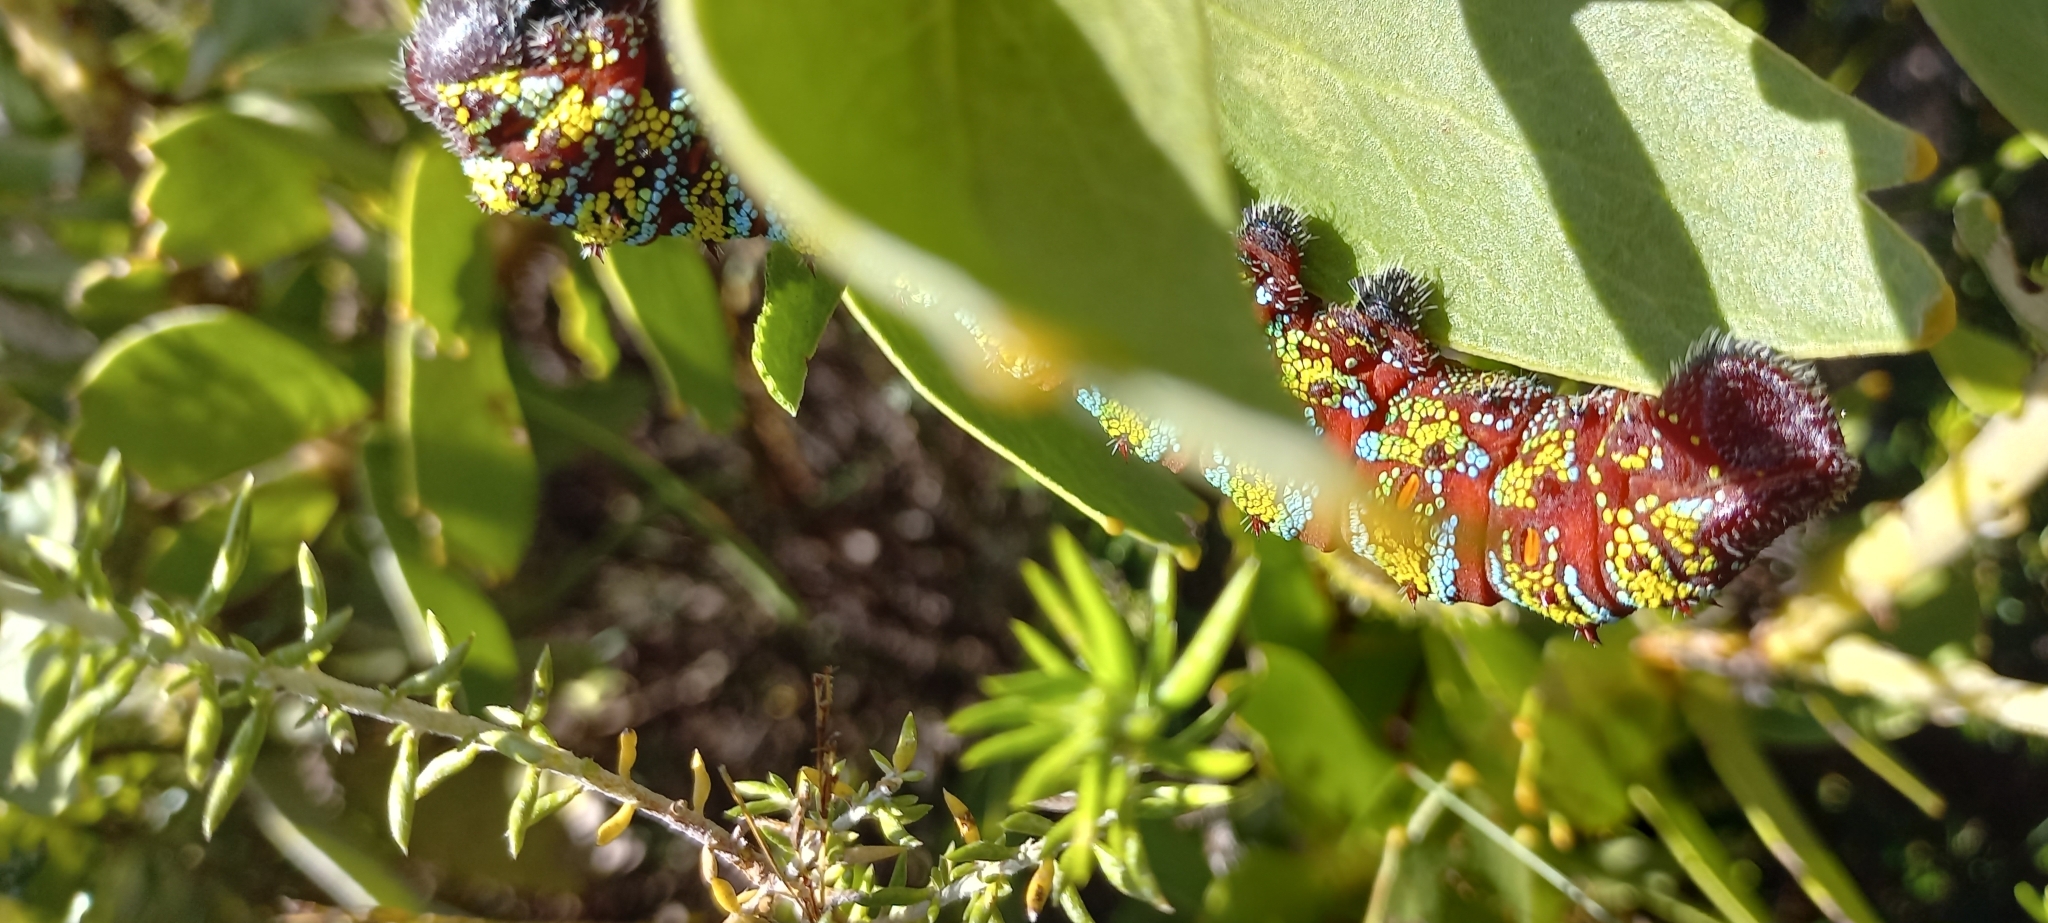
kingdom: Animalia
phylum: Arthropoda
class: Insecta
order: Lepidoptera
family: Saturniidae
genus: Nudaurelia
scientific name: Nudaurelia cytherea
